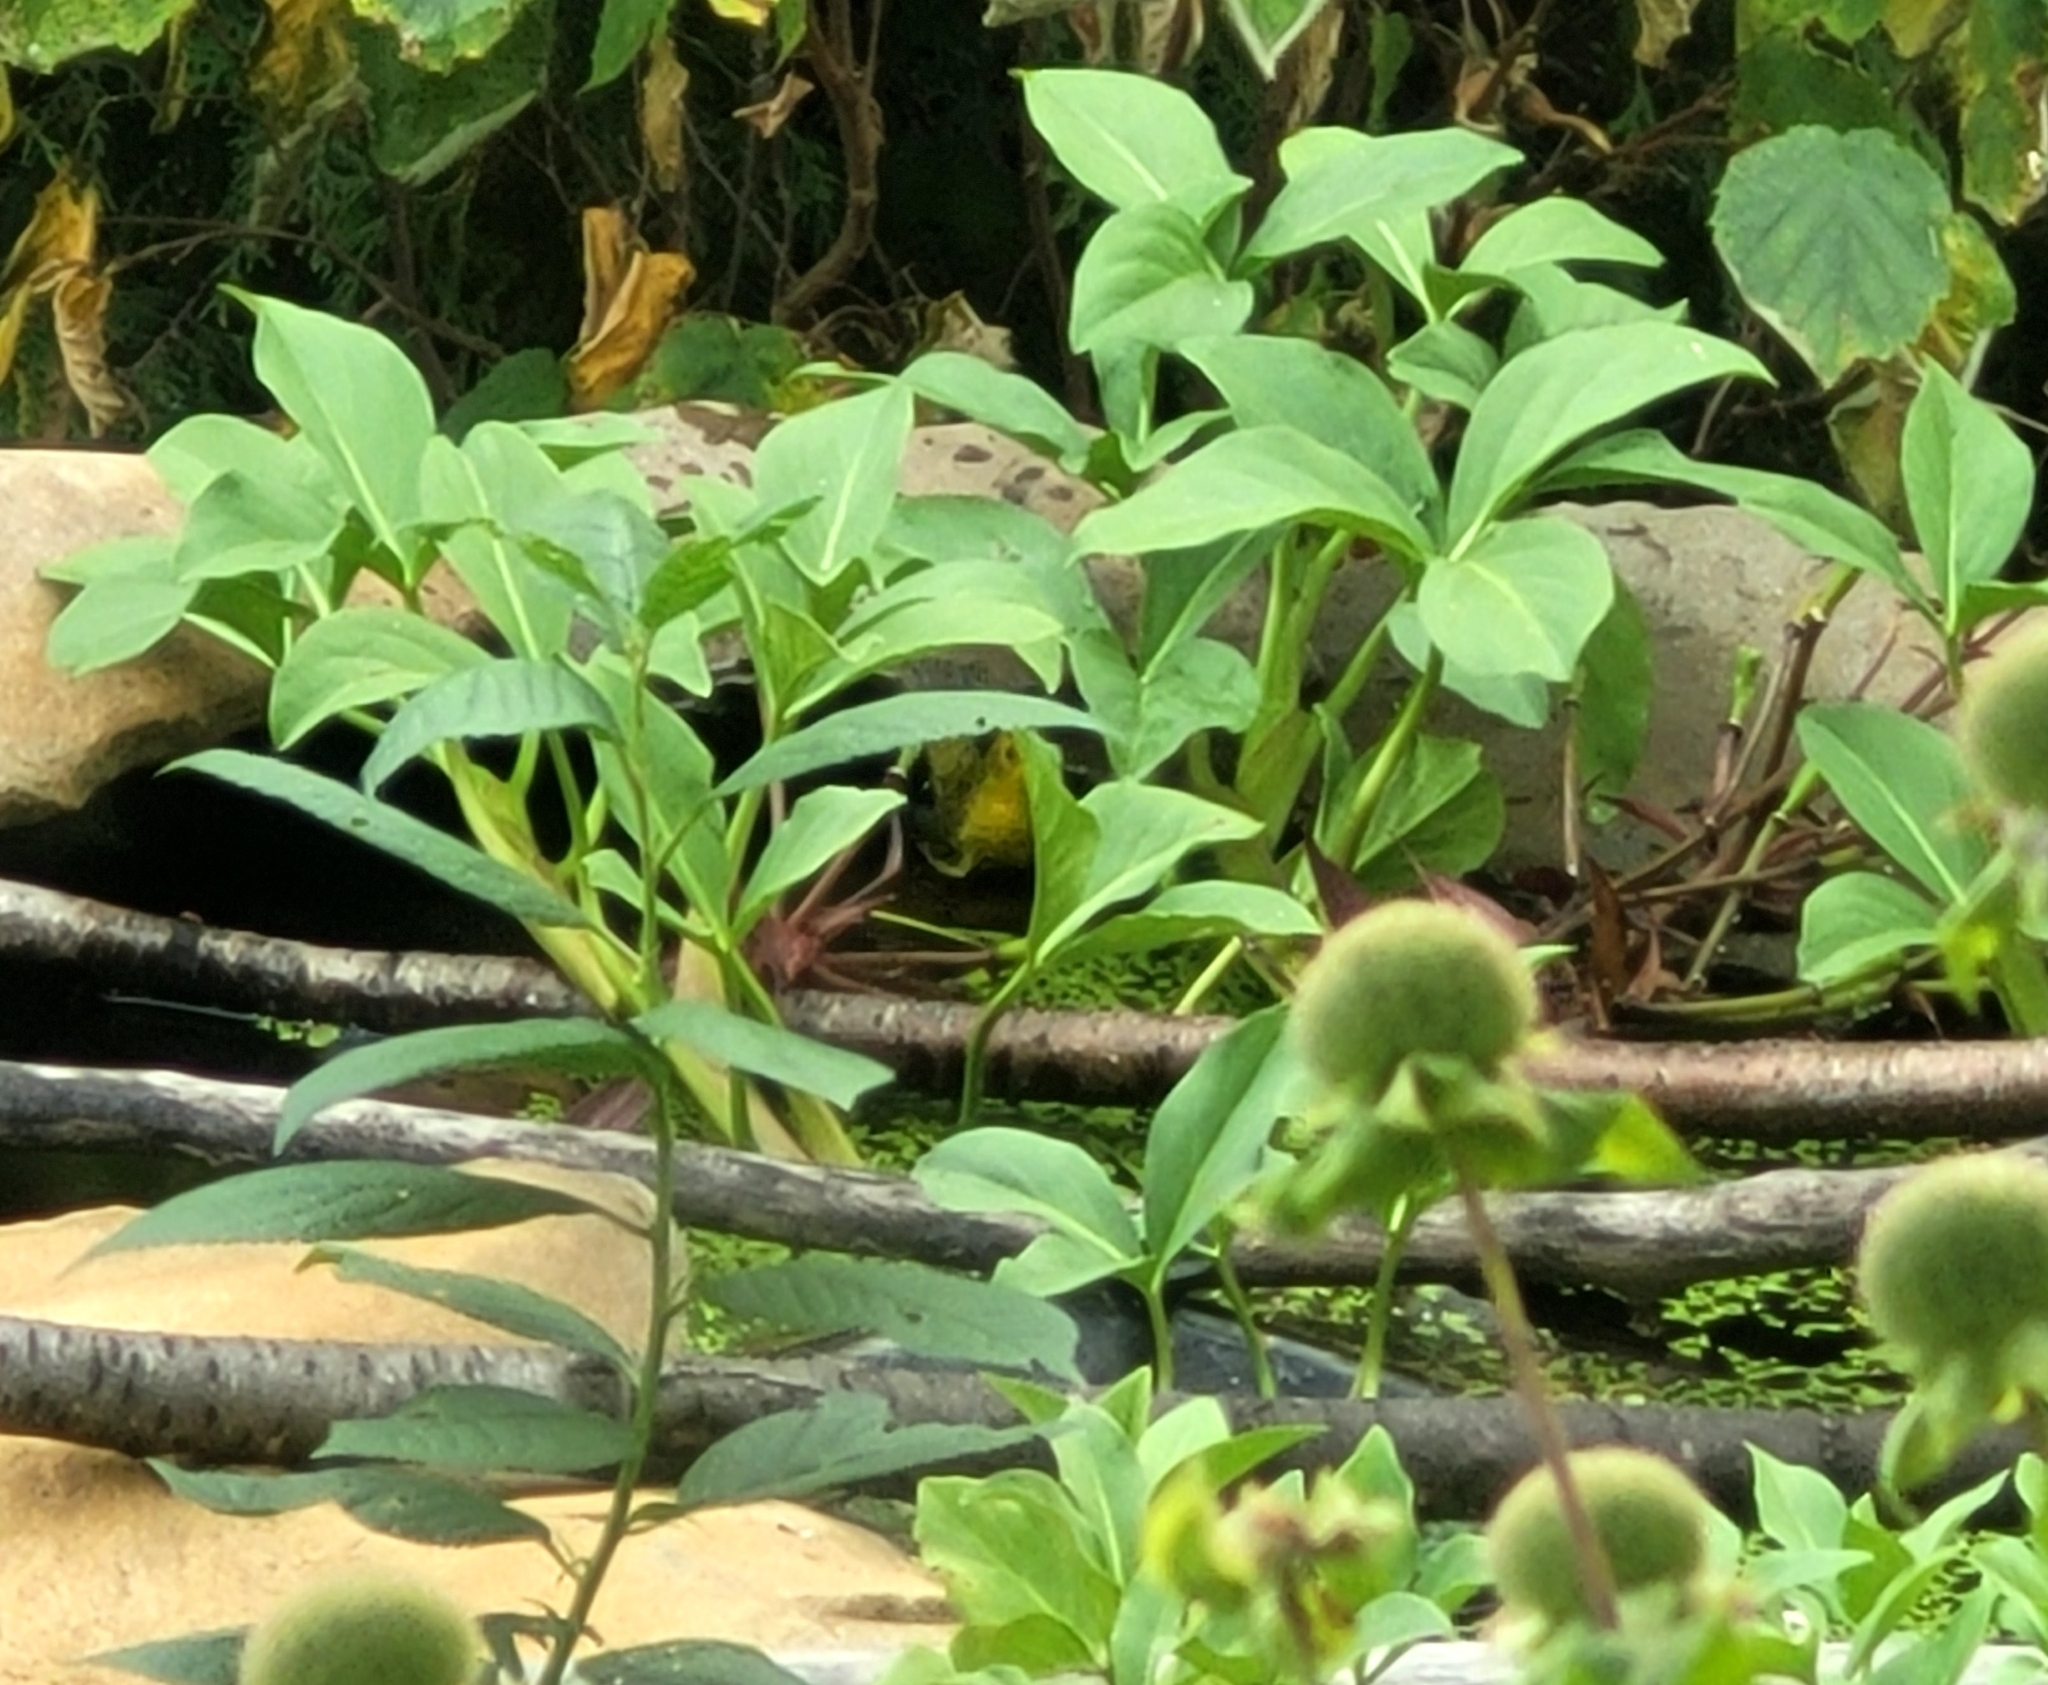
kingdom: Animalia
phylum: Chordata
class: Aves
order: Passeriformes
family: Parulidae
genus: Cardellina
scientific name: Cardellina pusilla
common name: Wilson's warbler
